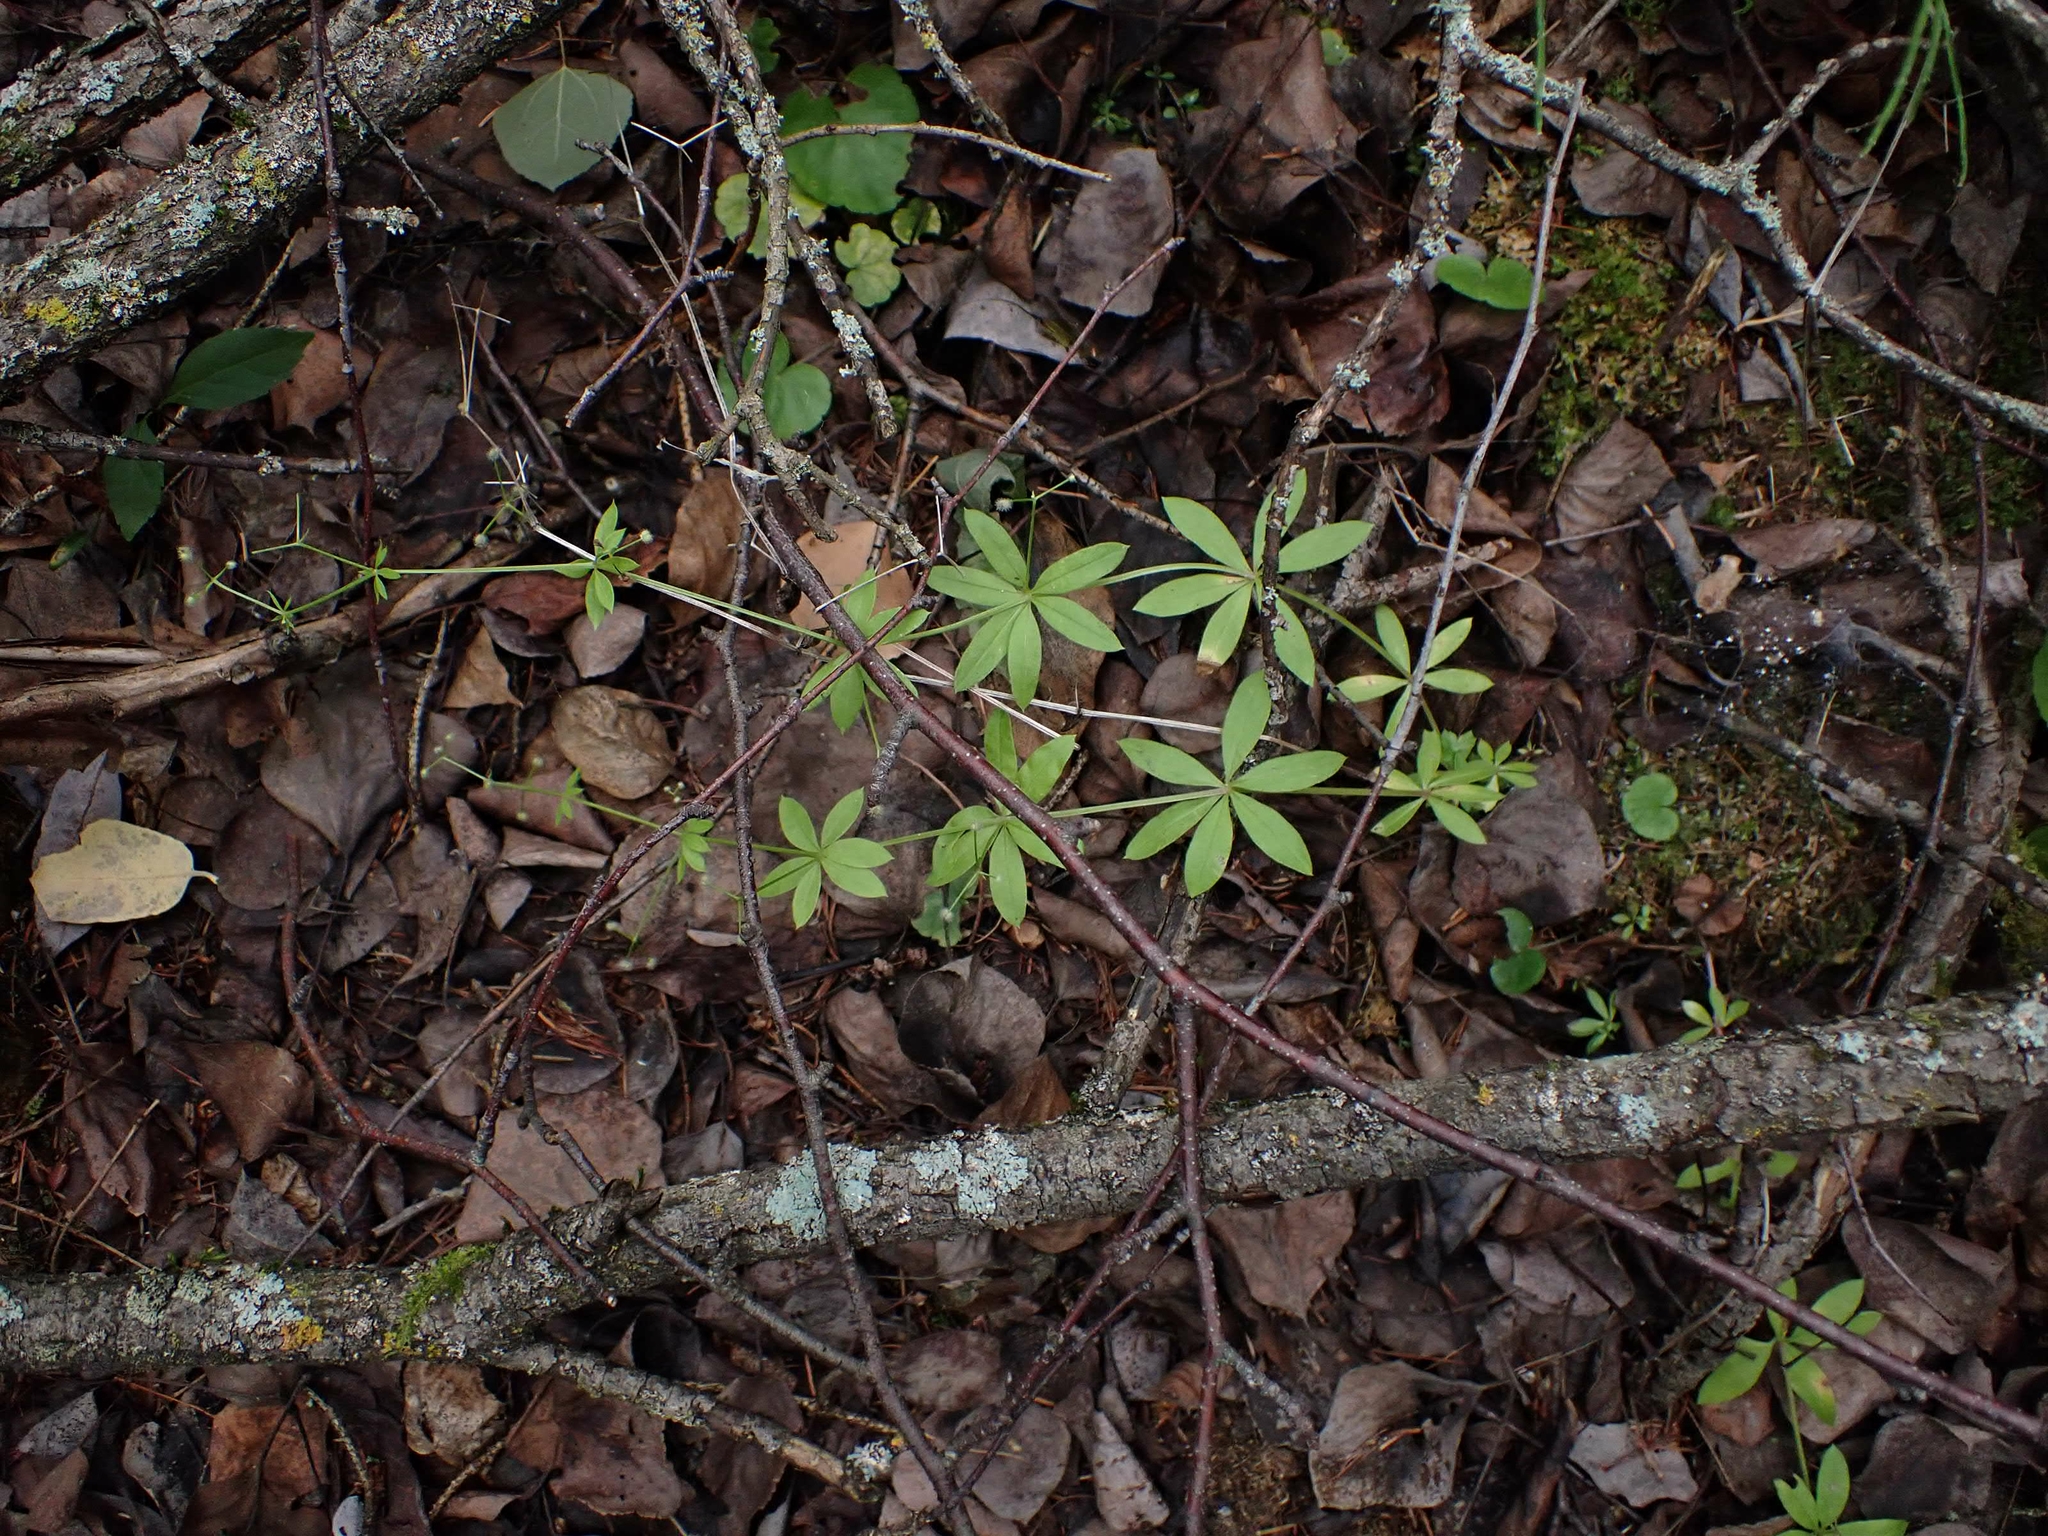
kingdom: Plantae
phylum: Tracheophyta
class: Magnoliopsida
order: Gentianales
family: Rubiaceae
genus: Galium
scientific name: Galium triflorum
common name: Fragrant bedstraw
